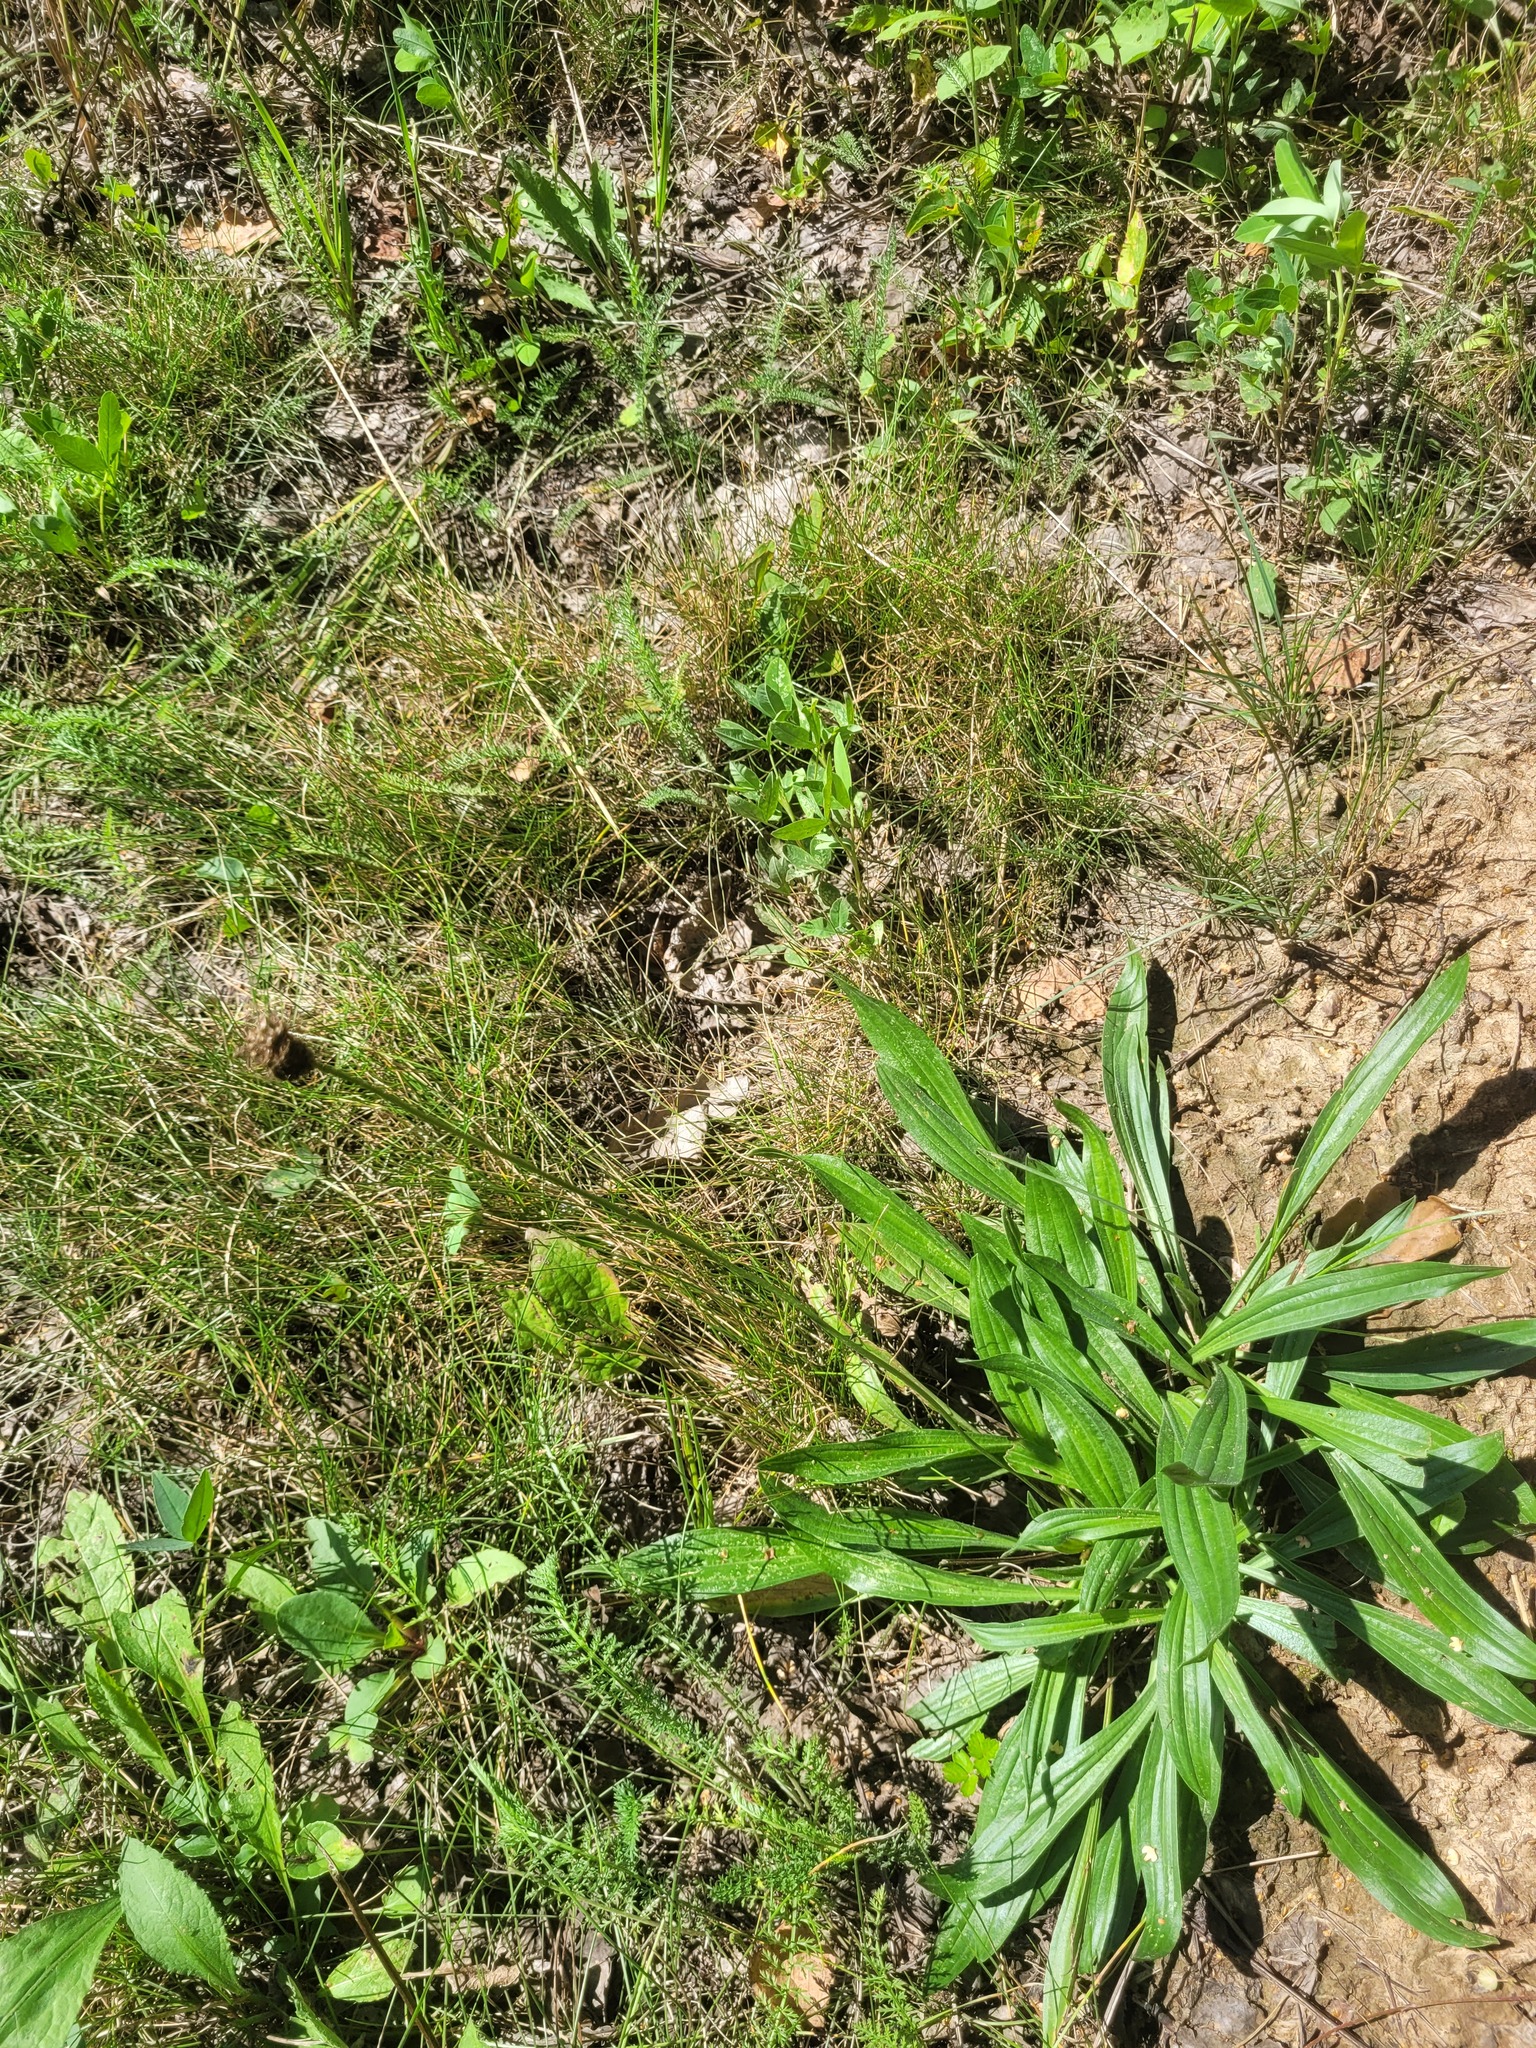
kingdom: Plantae
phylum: Tracheophyta
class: Magnoliopsida
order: Lamiales
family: Plantaginaceae
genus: Plantago
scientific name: Plantago lanceolata
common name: Ribwort plantain
